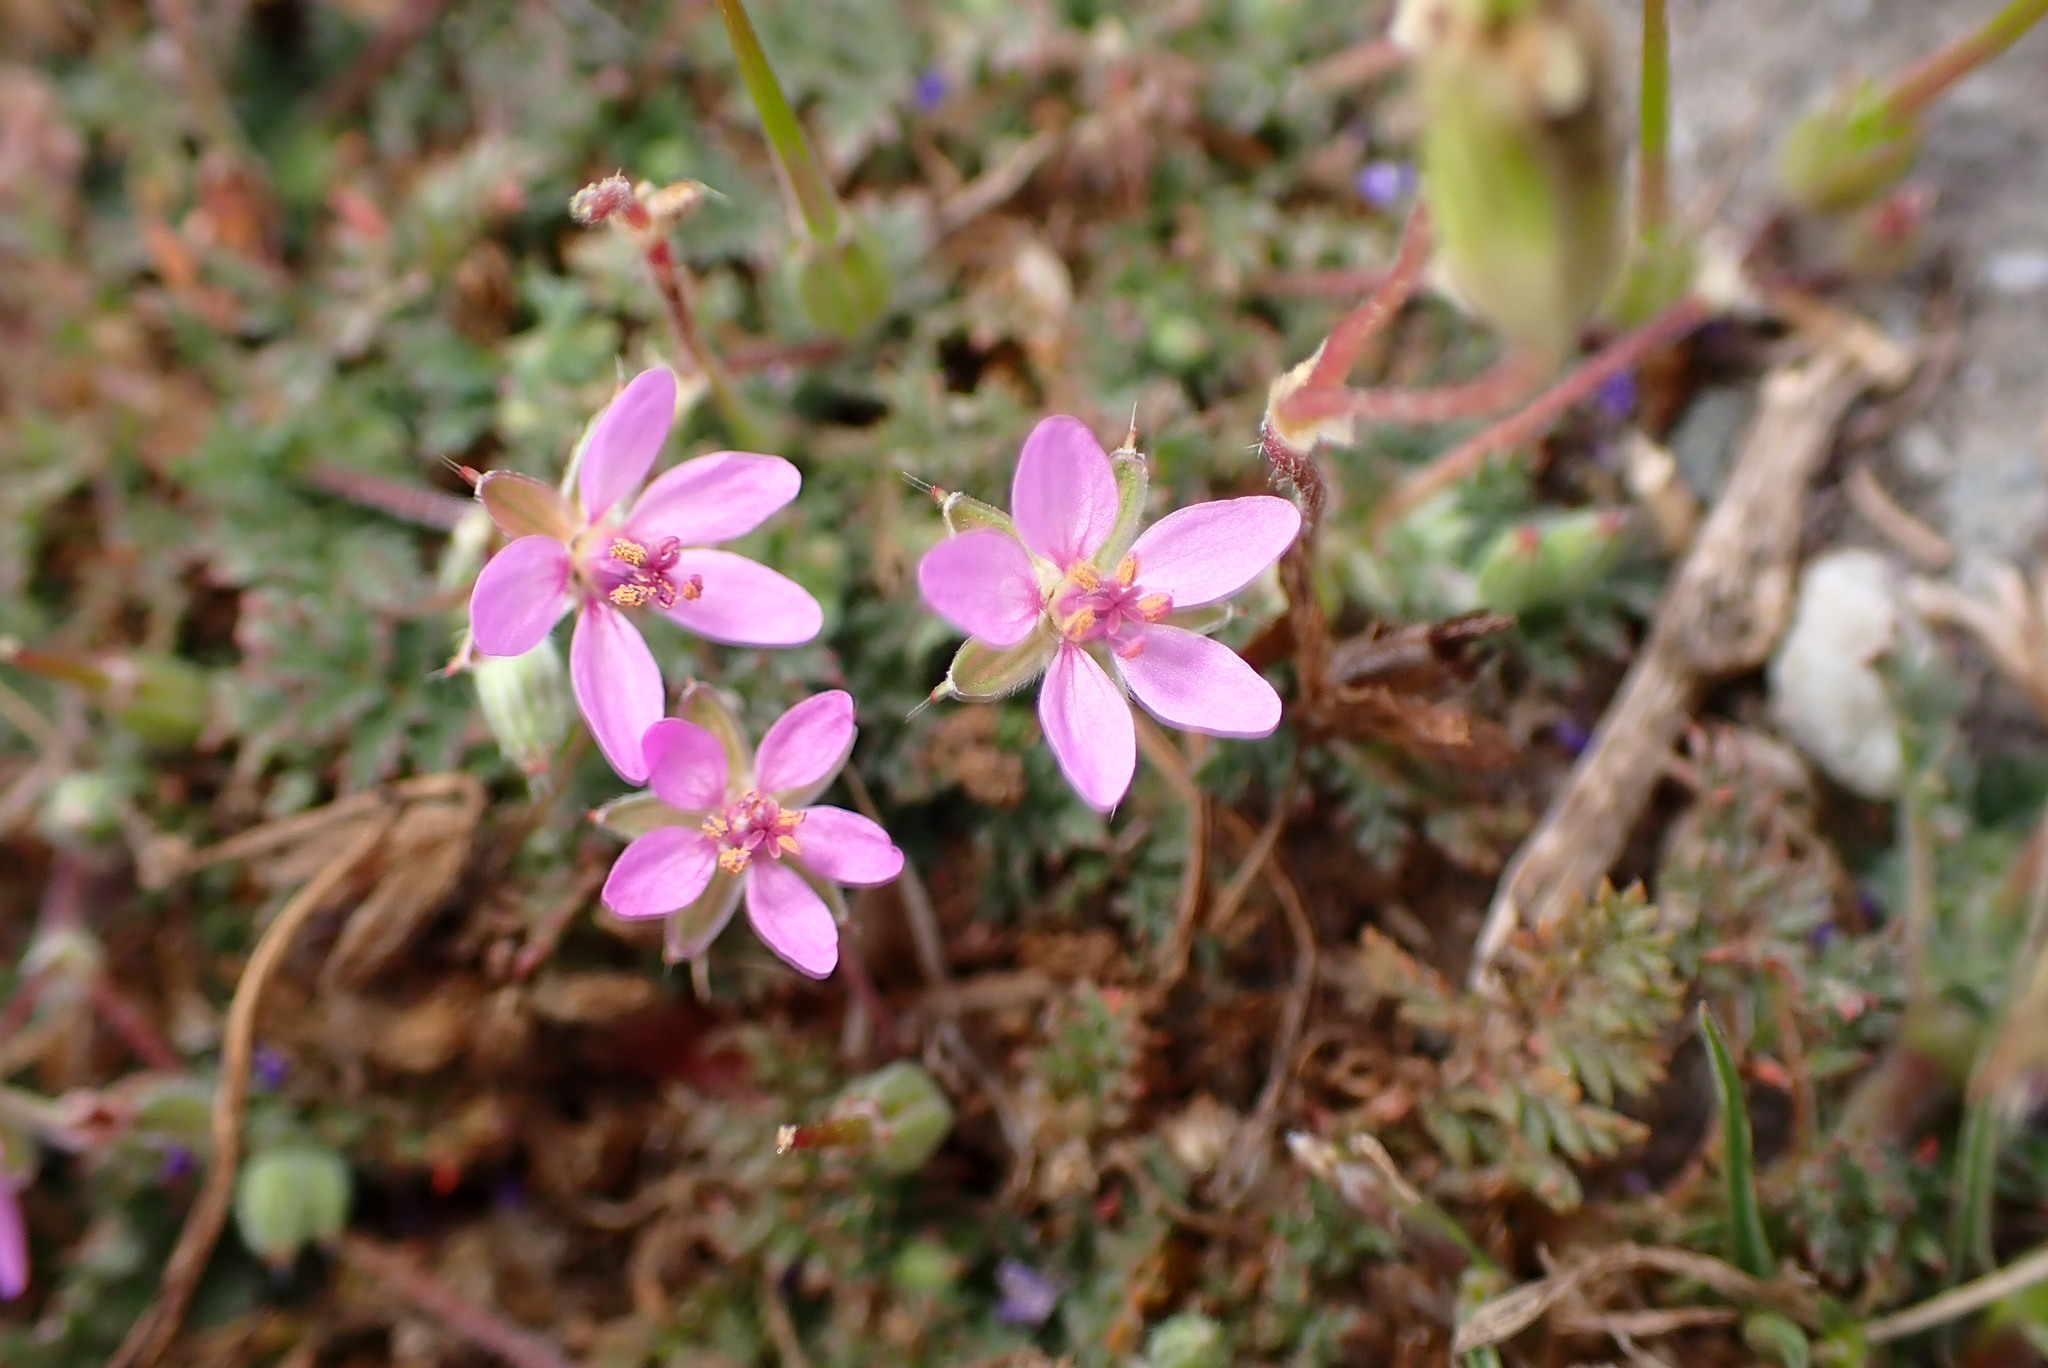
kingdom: Plantae
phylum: Tracheophyta
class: Magnoliopsida
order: Geraniales
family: Geraniaceae
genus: Erodium
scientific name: Erodium cicutarium
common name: Common stork's-bill
